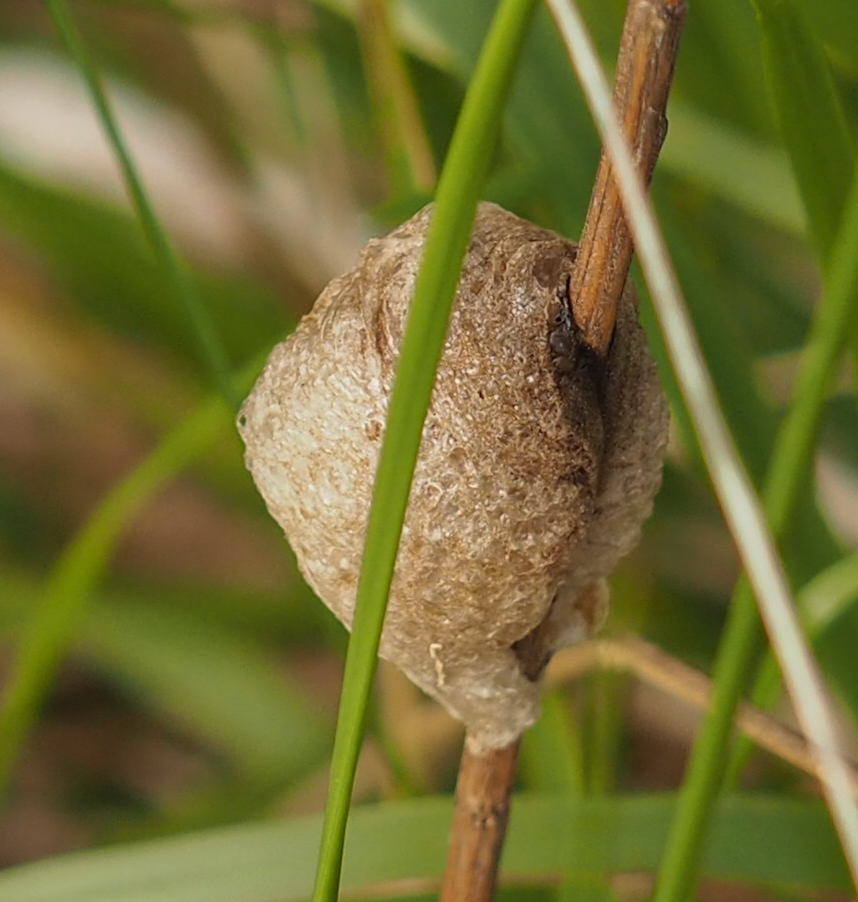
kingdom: Animalia
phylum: Arthropoda
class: Insecta
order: Mantodea
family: Mantidae
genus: Tenodera
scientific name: Tenodera sinensis
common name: Chinese mantis
